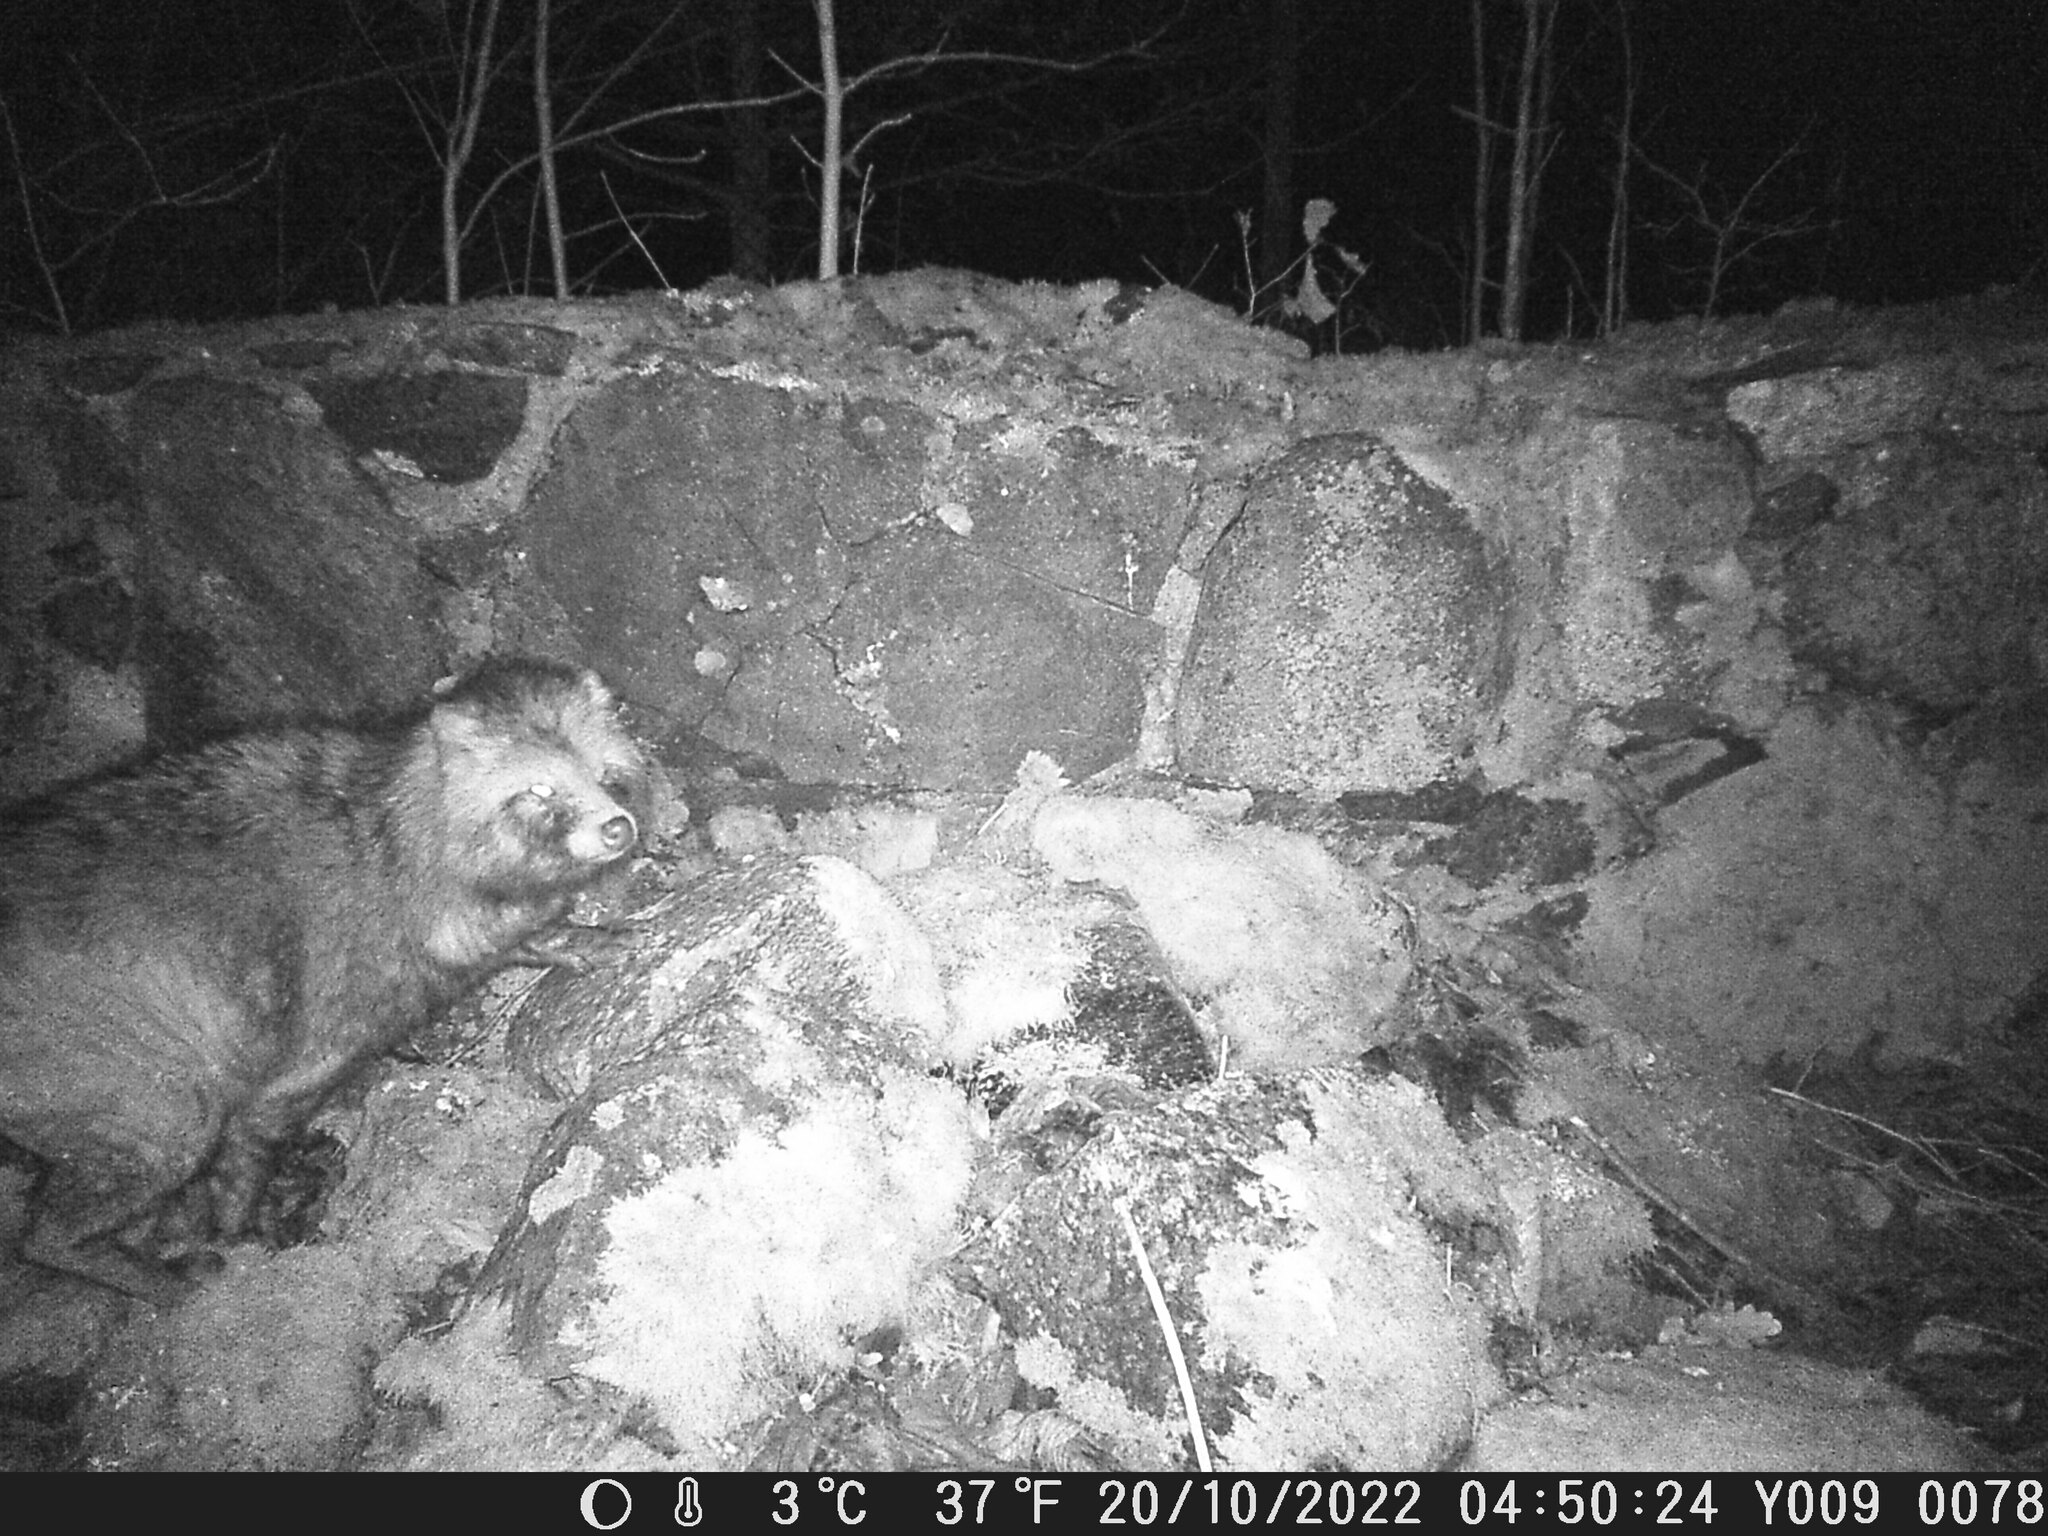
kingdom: Animalia
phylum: Chordata
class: Mammalia
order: Carnivora
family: Canidae
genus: Nyctereutes
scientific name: Nyctereutes procyonoides
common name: Raccoon dog
